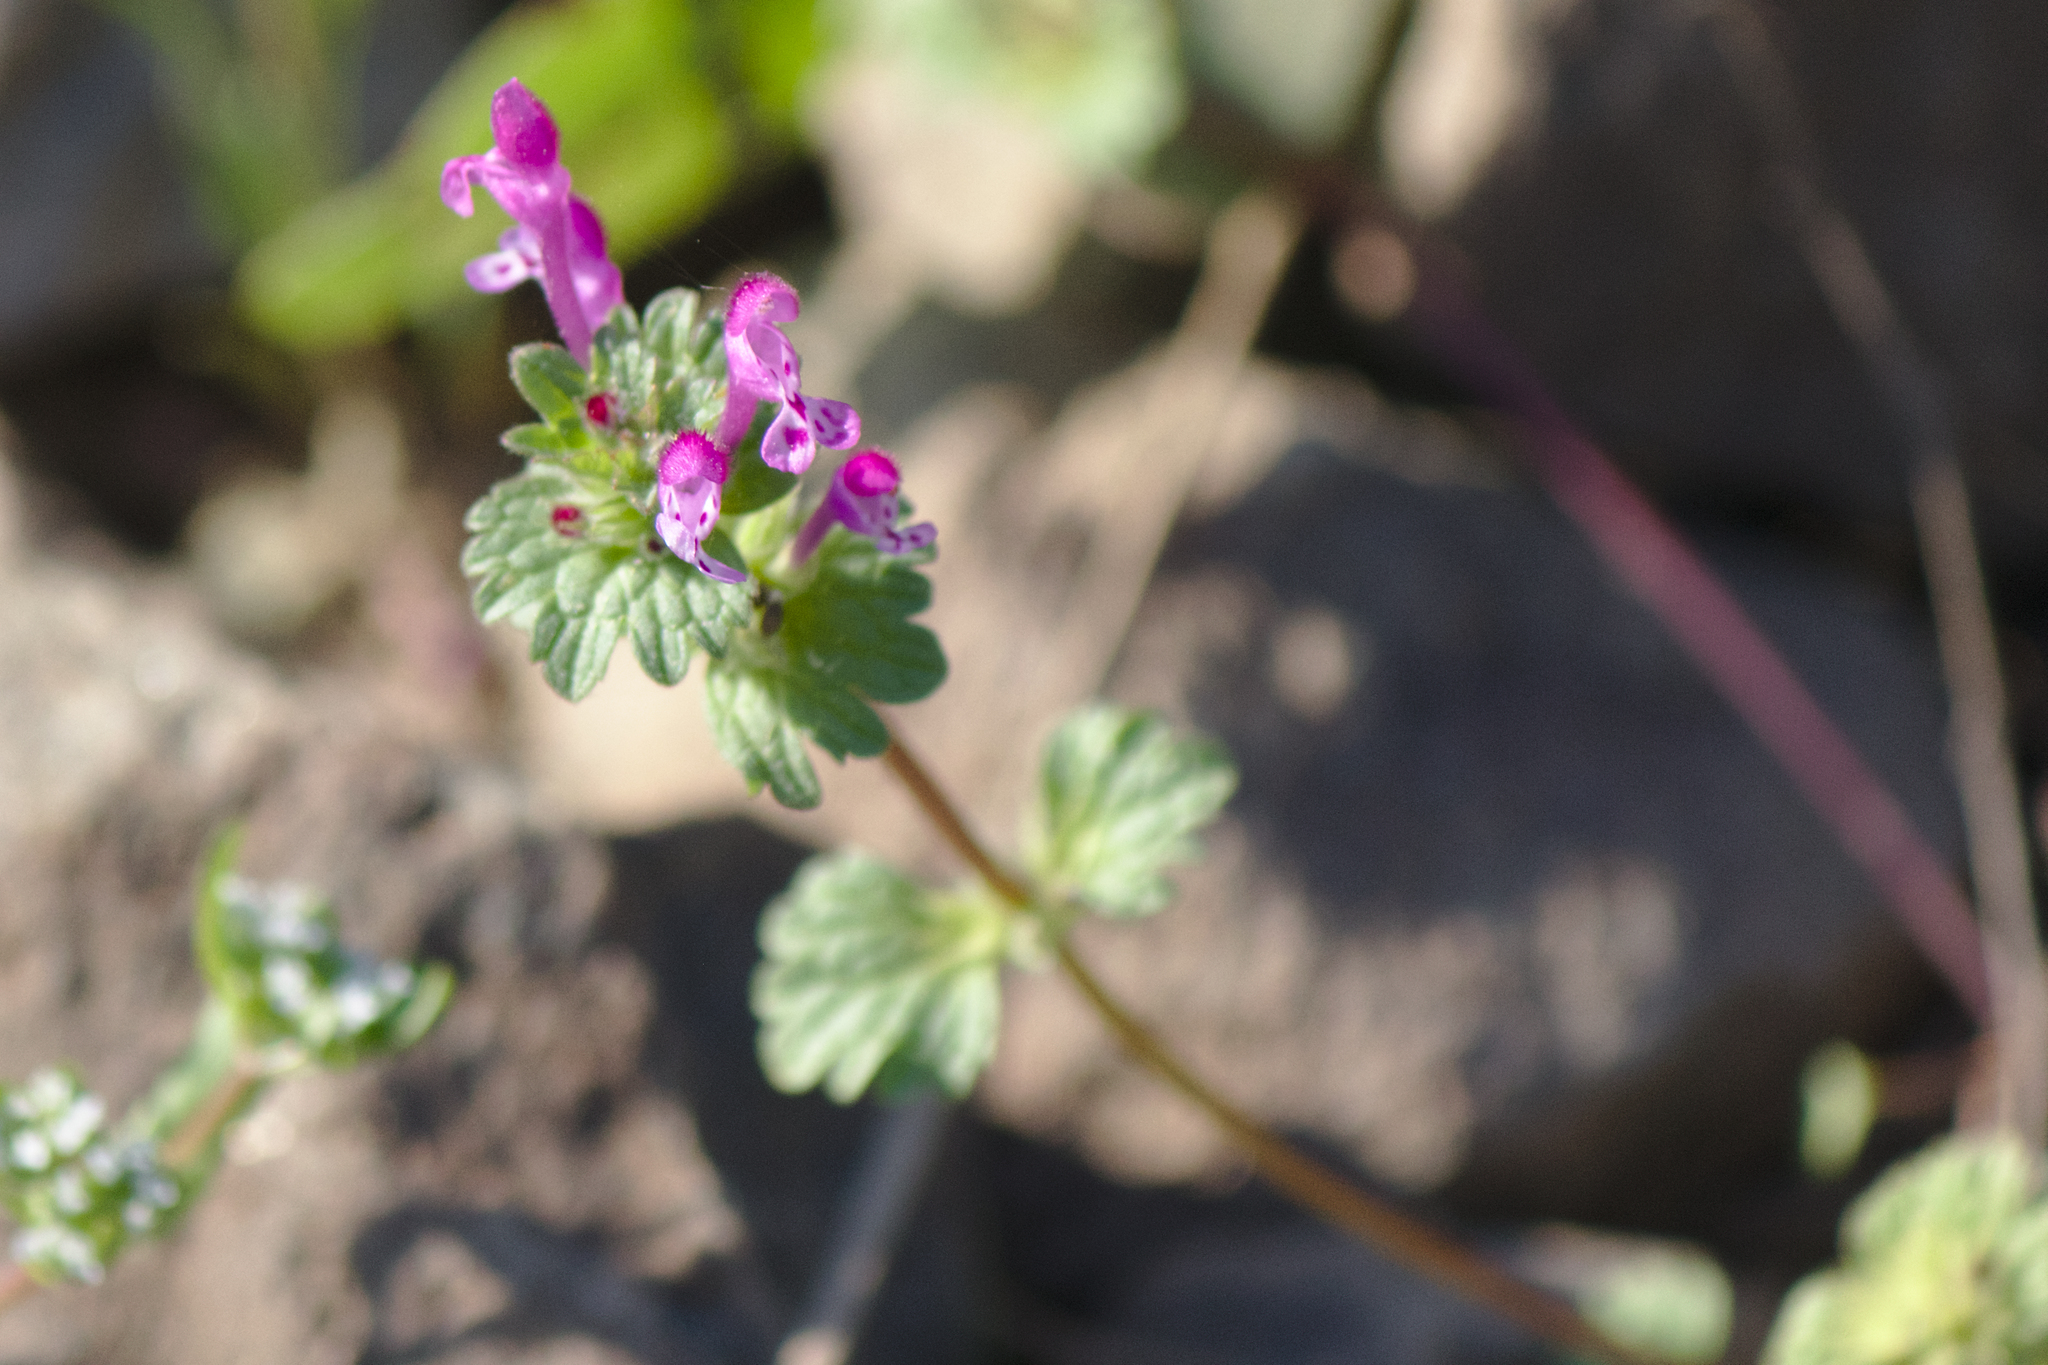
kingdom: Plantae
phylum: Tracheophyta
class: Magnoliopsida
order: Lamiales
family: Lamiaceae
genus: Lamium
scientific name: Lamium amplexicaule
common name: Henbit dead-nettle
